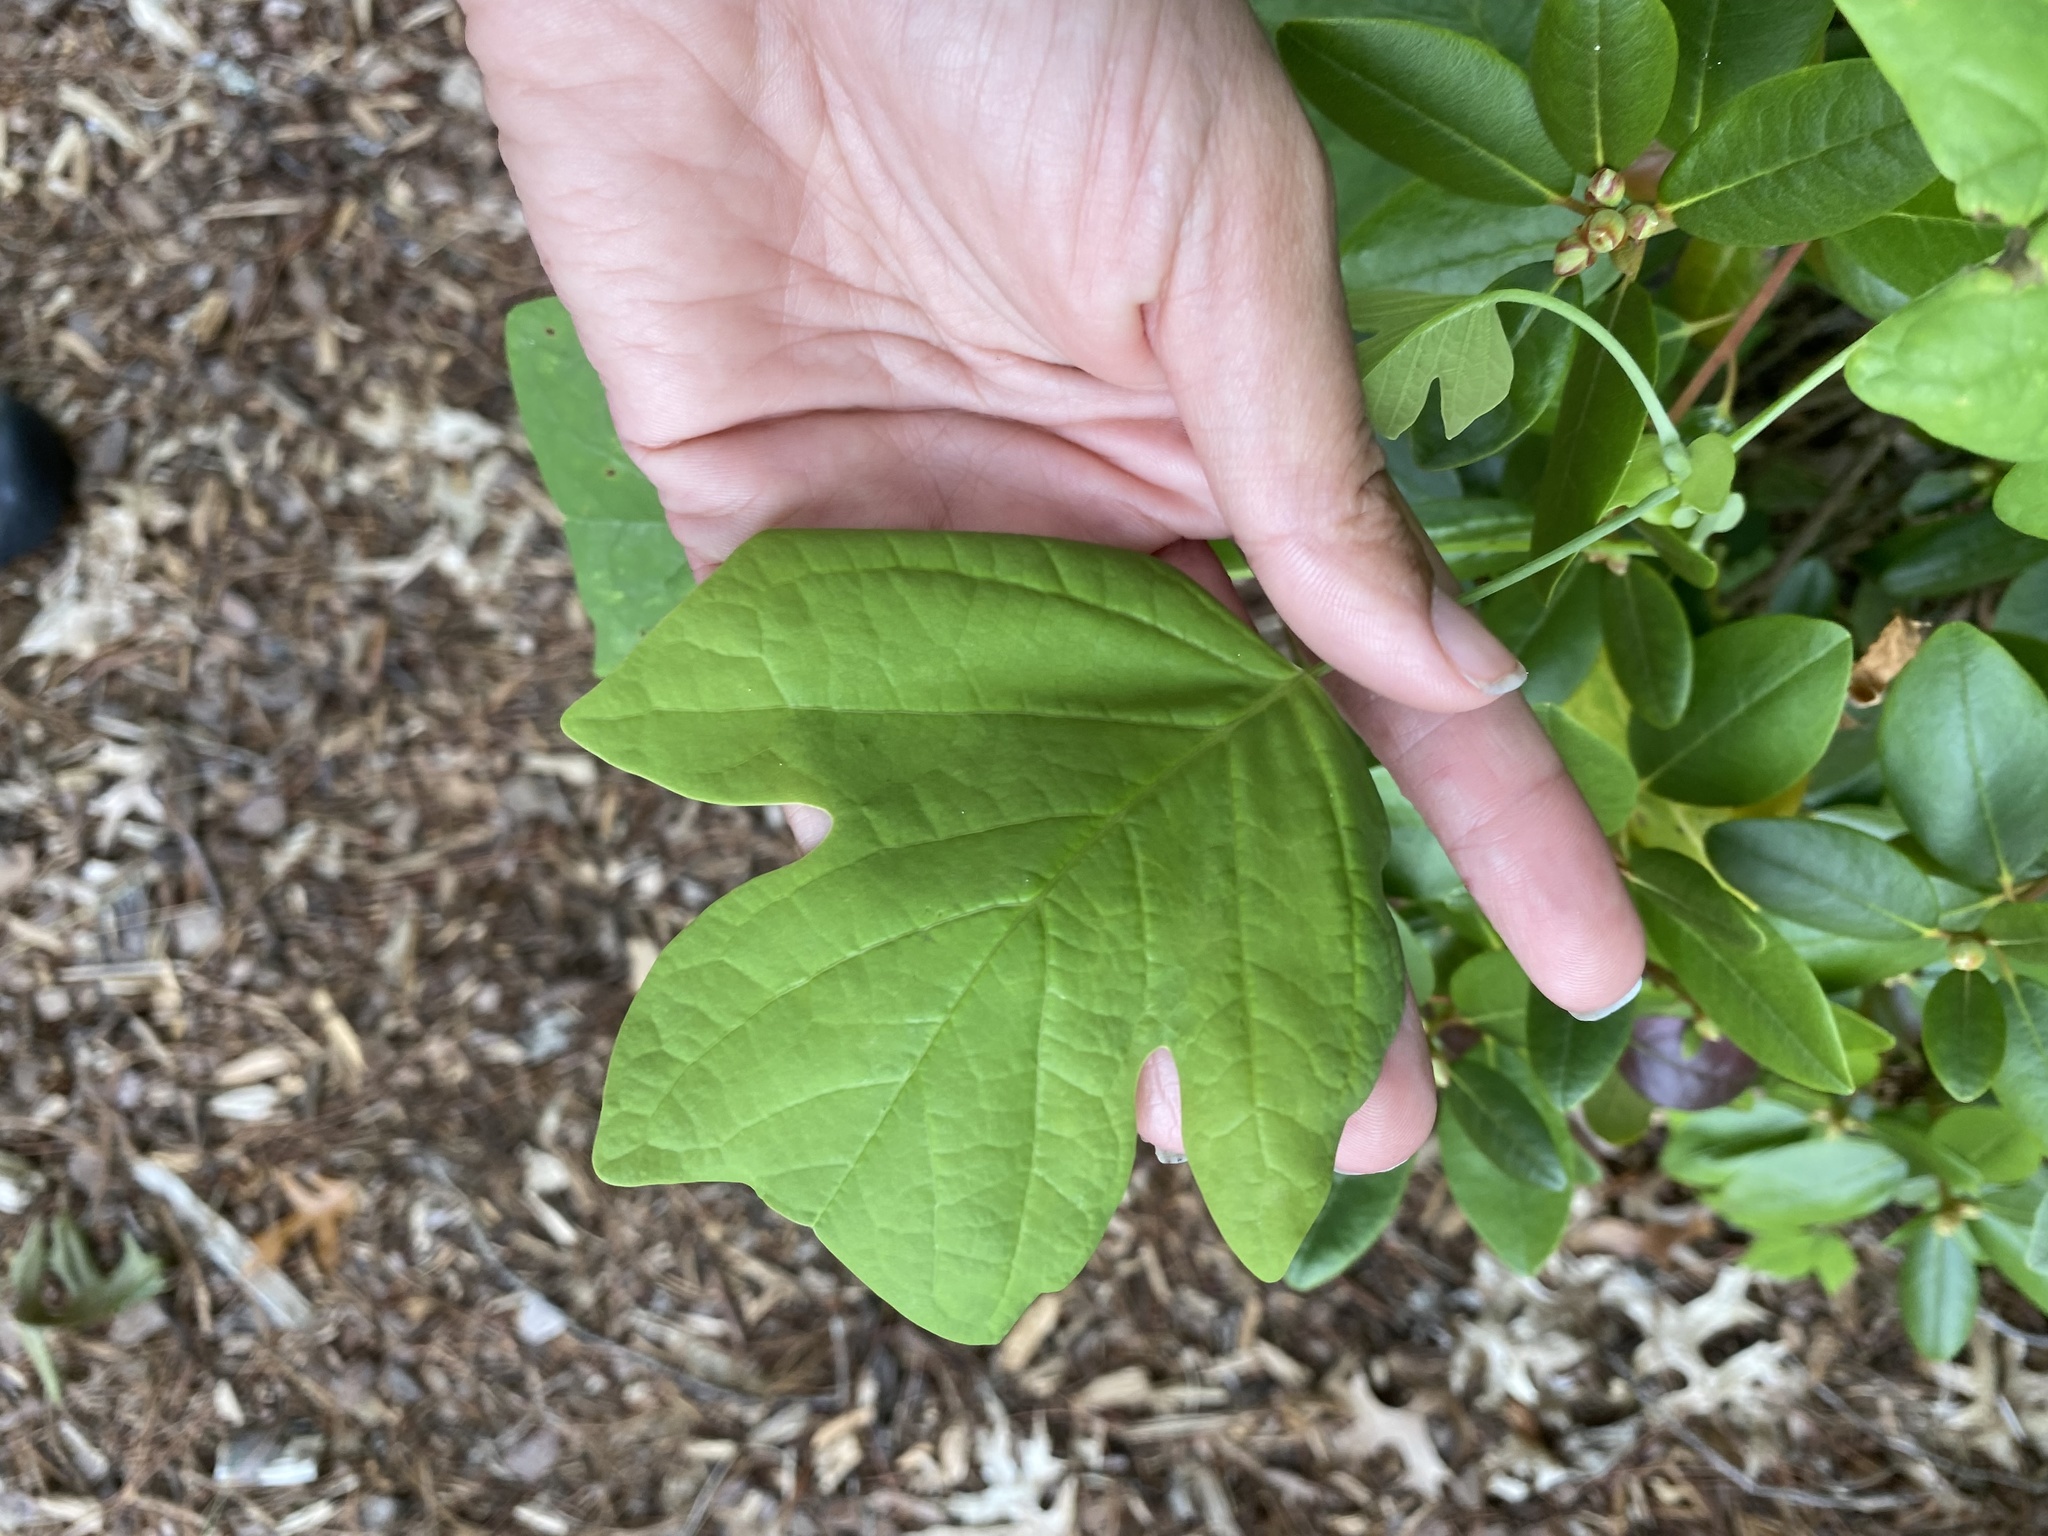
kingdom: Plantae
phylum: Tracheophyta
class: Magnoliopsida
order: Magnoliales
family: Magnoliaceae
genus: Liriodendron
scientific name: Liriodendron tulipifera
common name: Tulip tree
